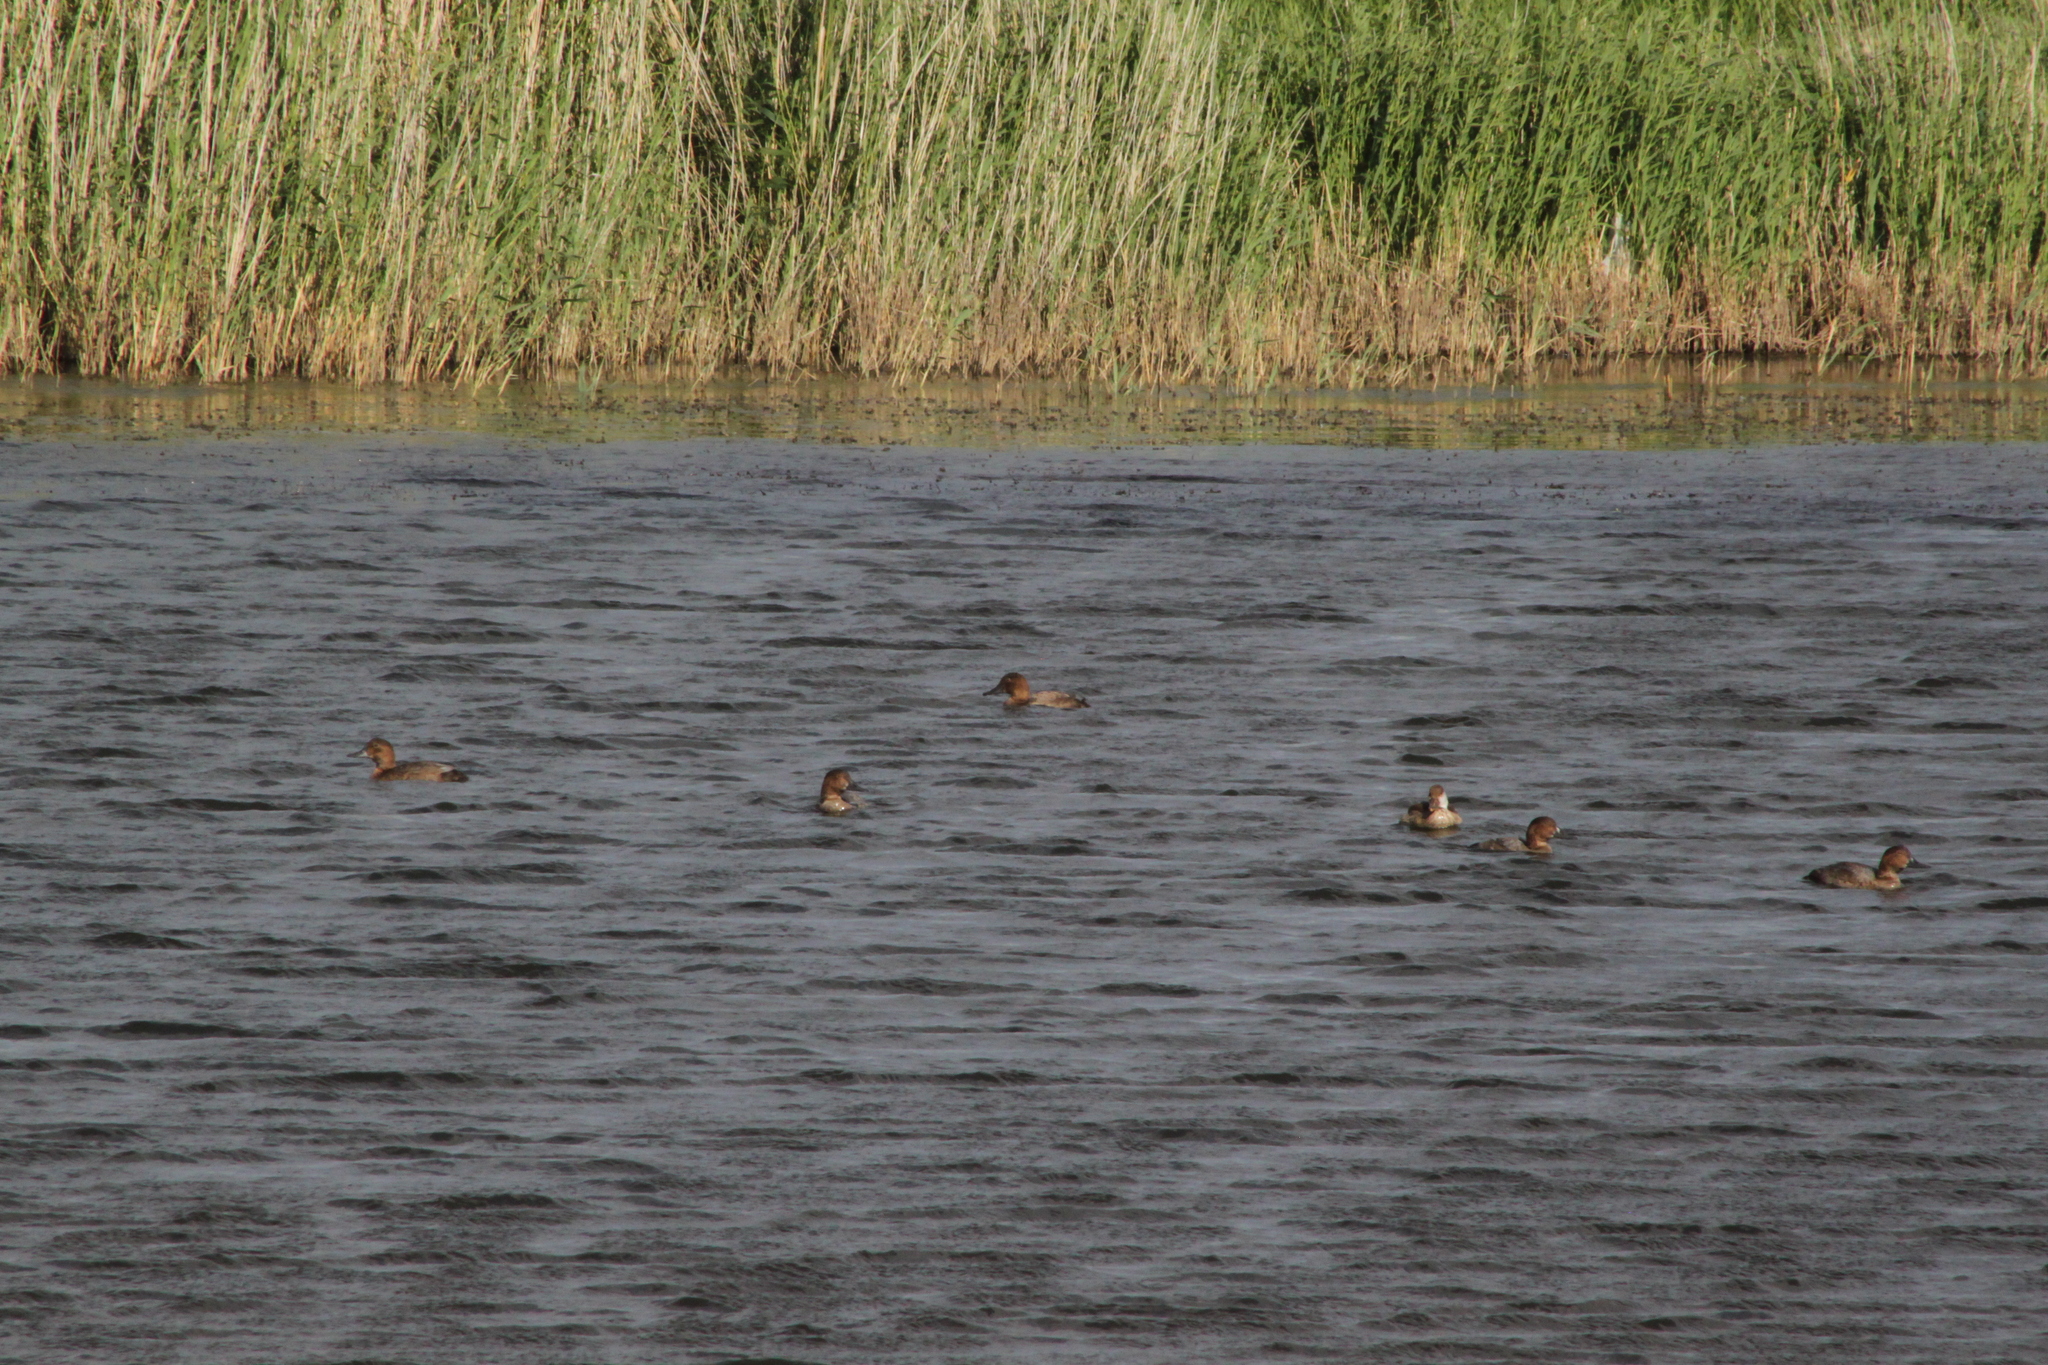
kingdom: Animalia
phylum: Chordata
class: Aves
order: Anseriformes
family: Anatidae
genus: Aythya
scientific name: Aythya ferina
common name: Common pochard
